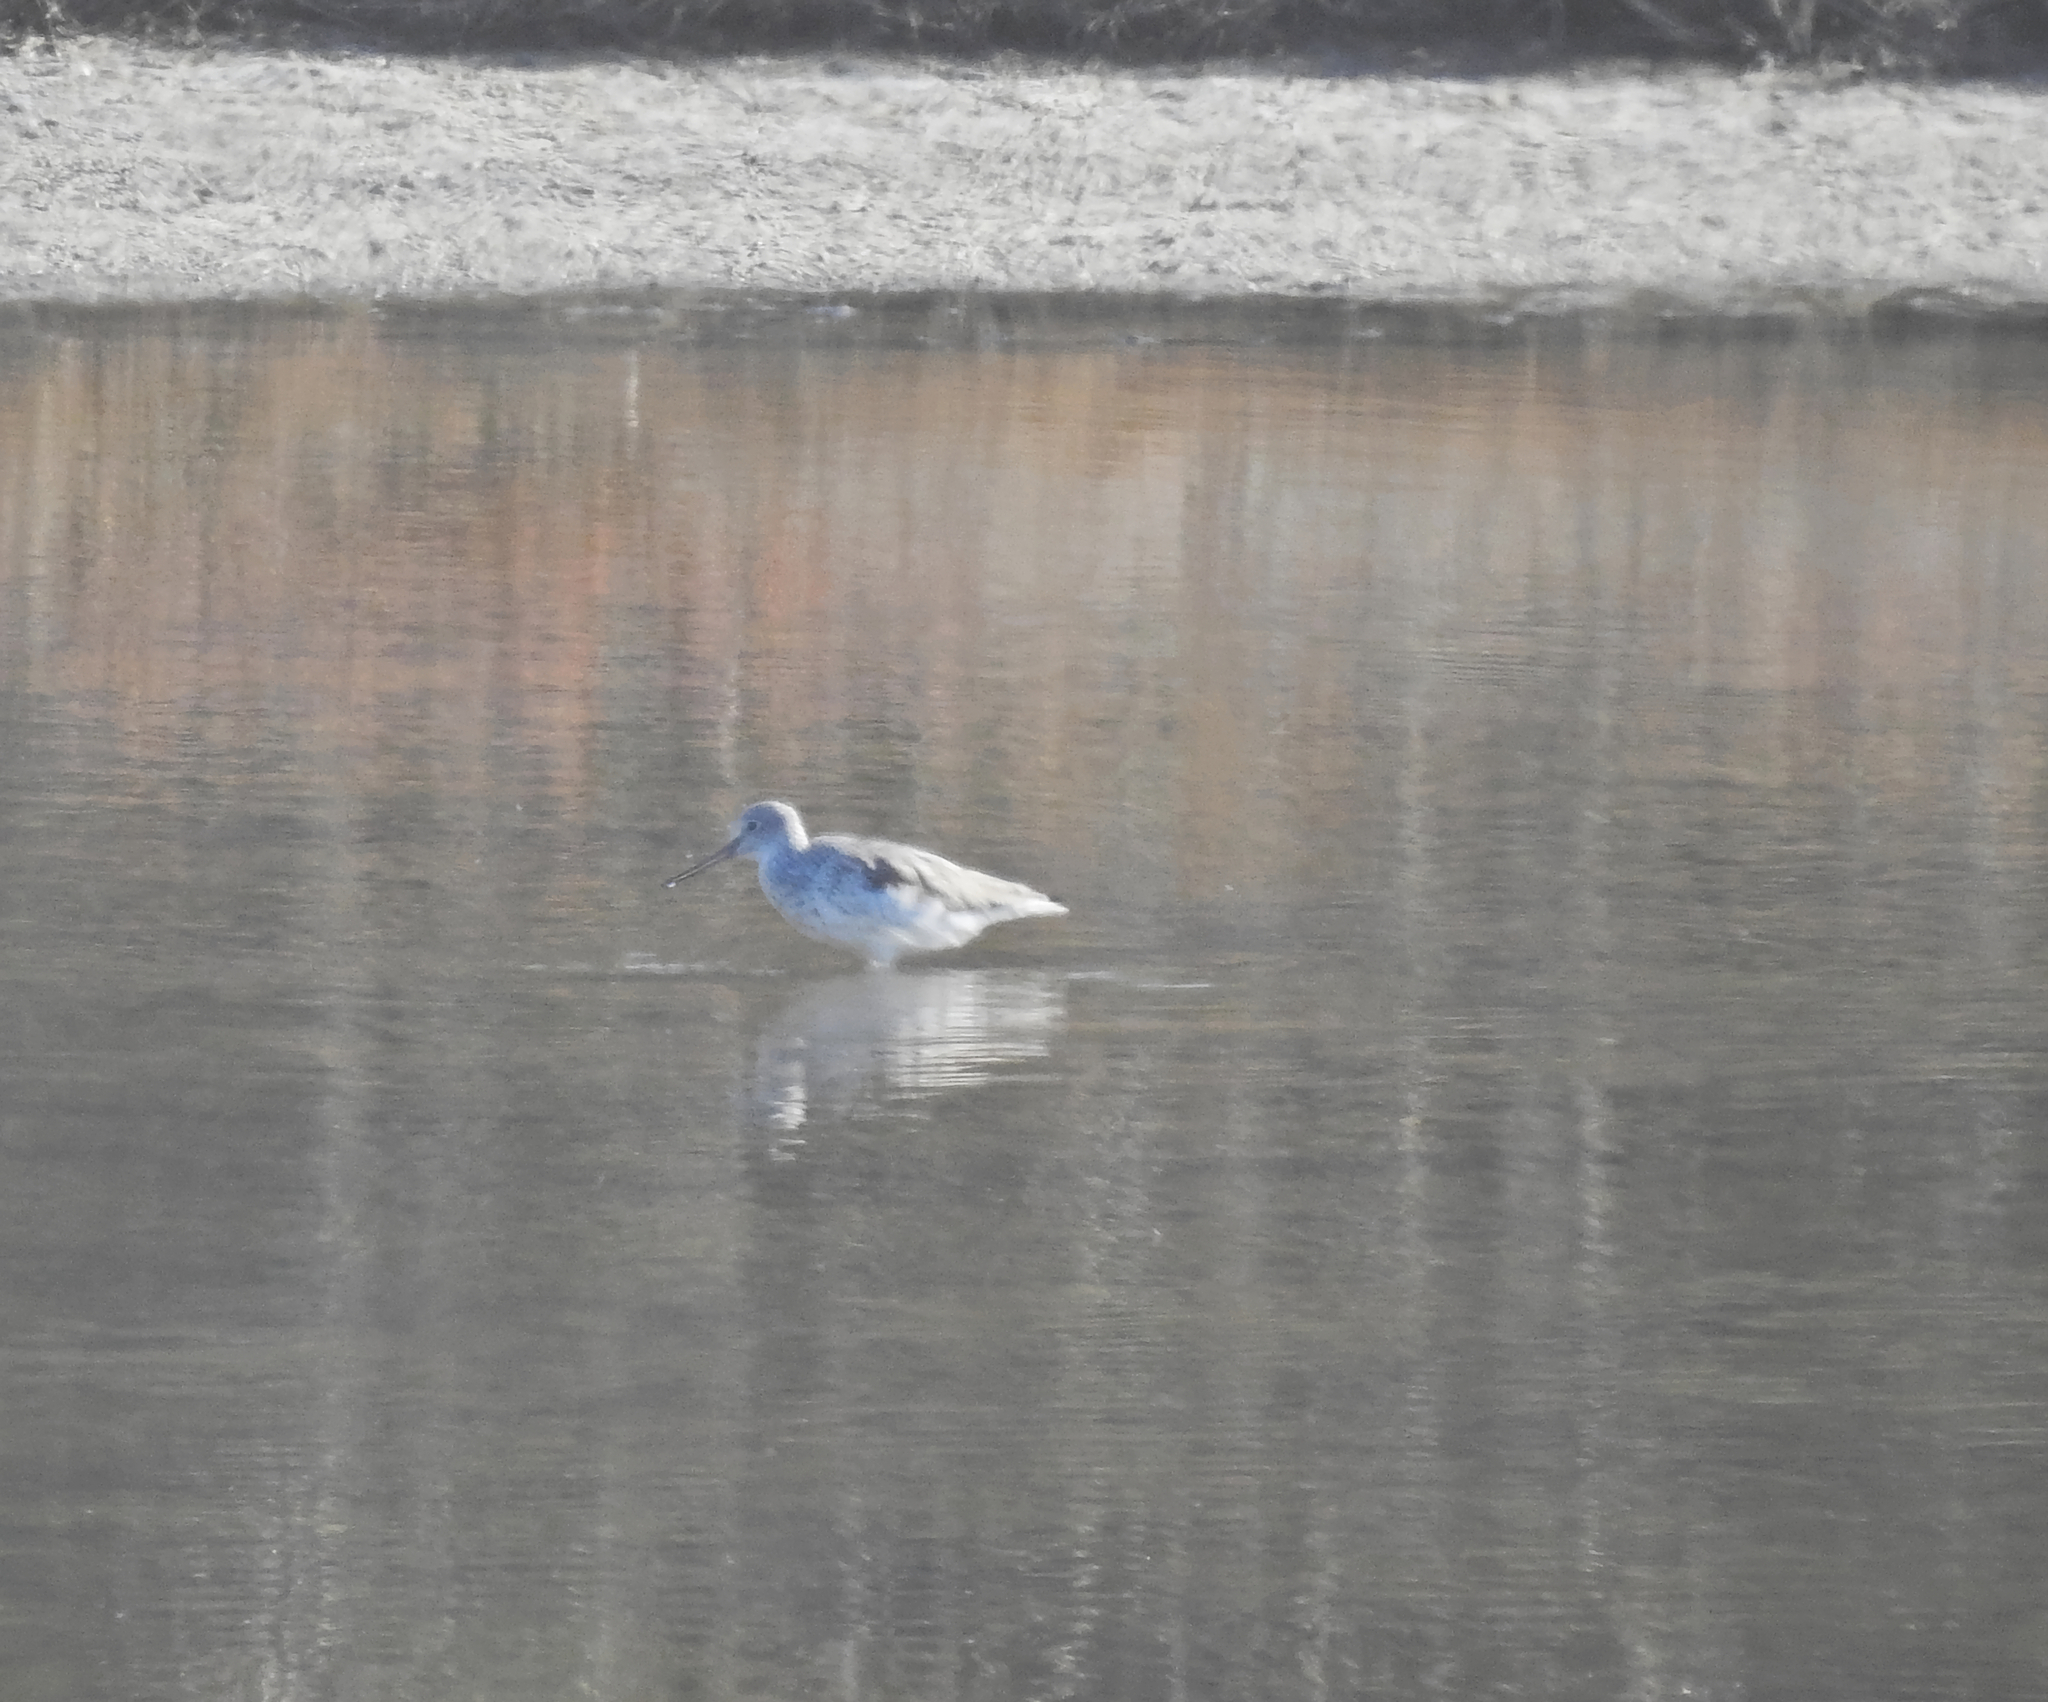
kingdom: Animalia
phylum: Chordata
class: Aves
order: Charadriiformes
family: Scolopacidae
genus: Tringa
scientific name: Tringa nebularia
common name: Common greenshank
